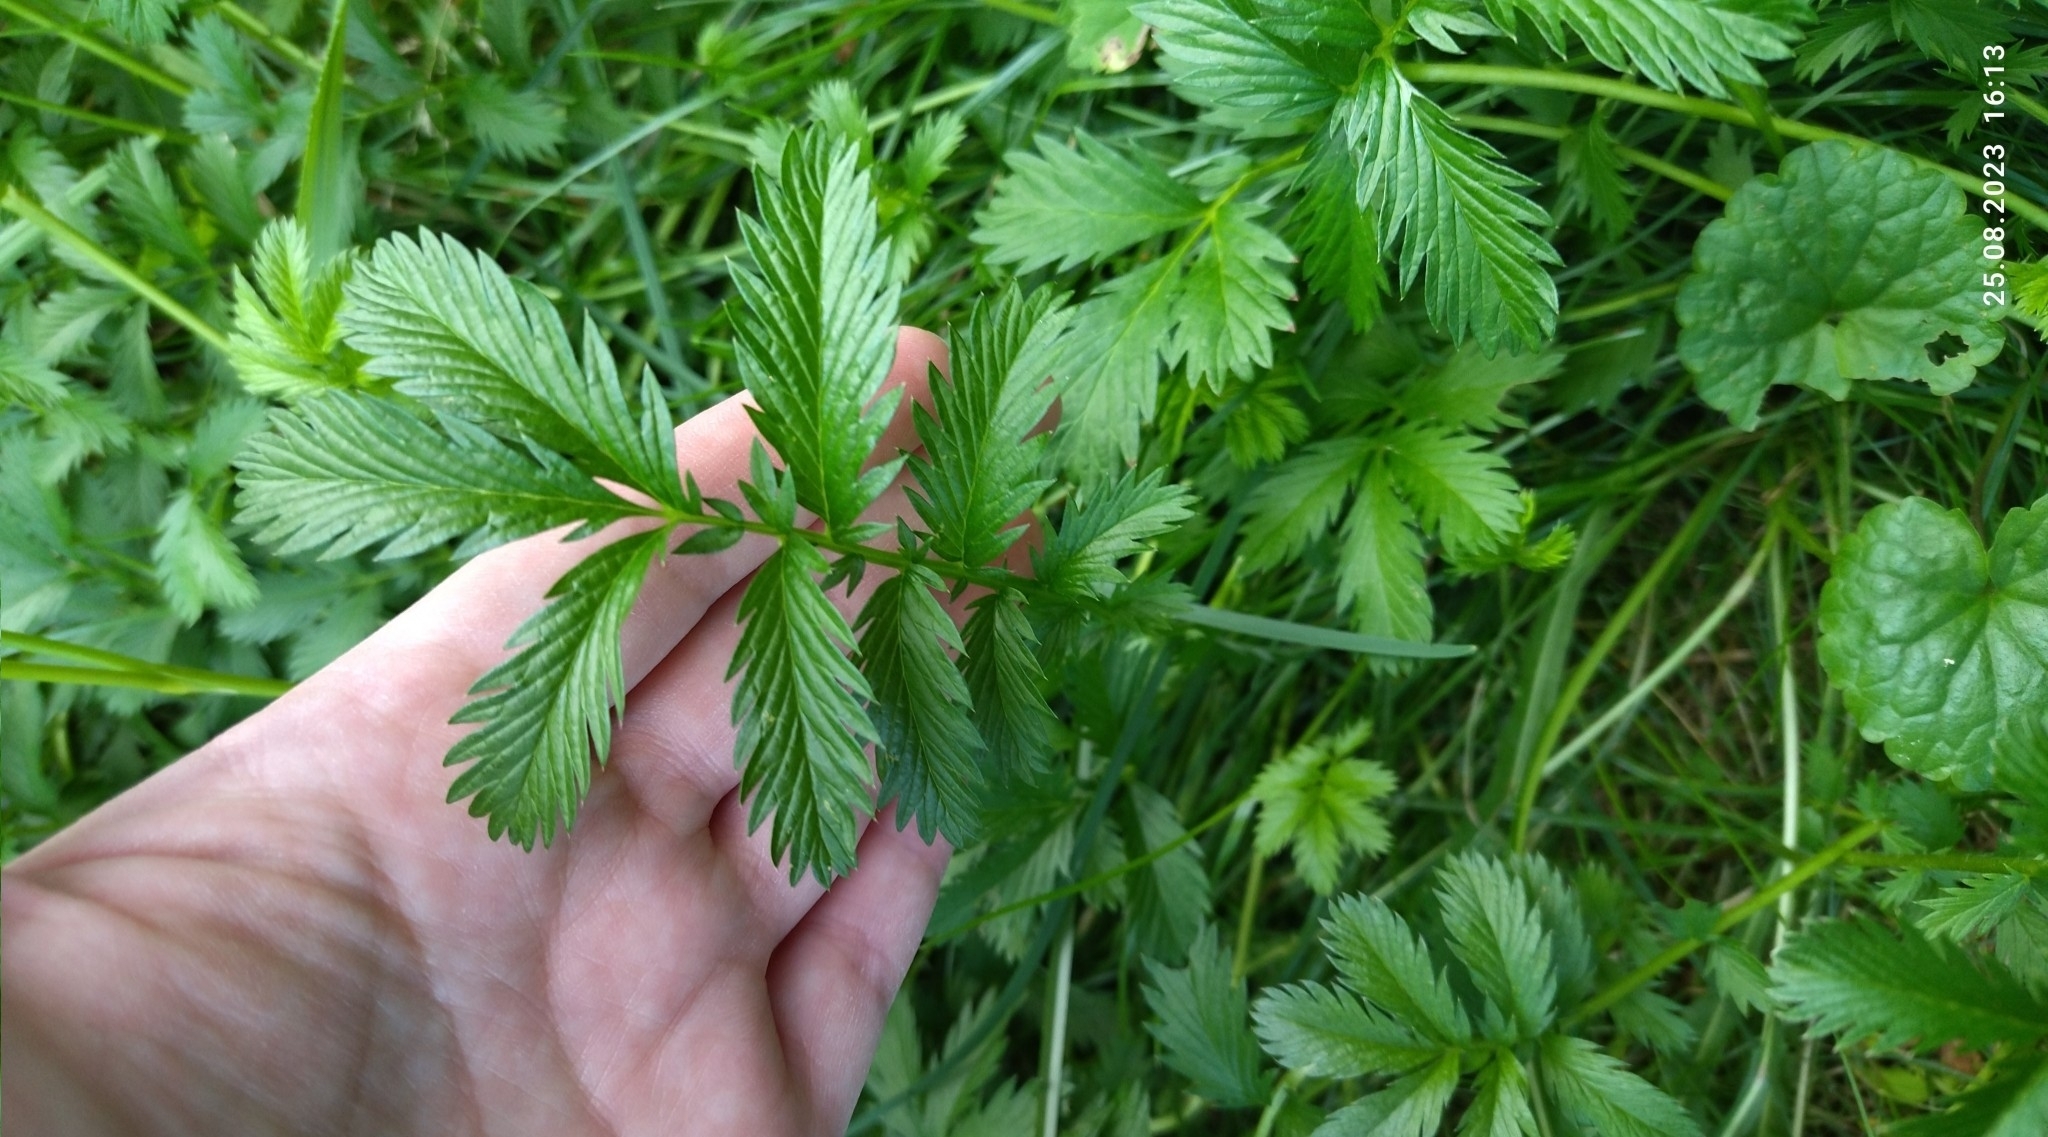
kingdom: Plantae
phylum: Tracheophyta
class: Magnoliopsida
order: Rosales
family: Rosaceae
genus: Argentina
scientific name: Argentina anserina
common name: Common silverweed
